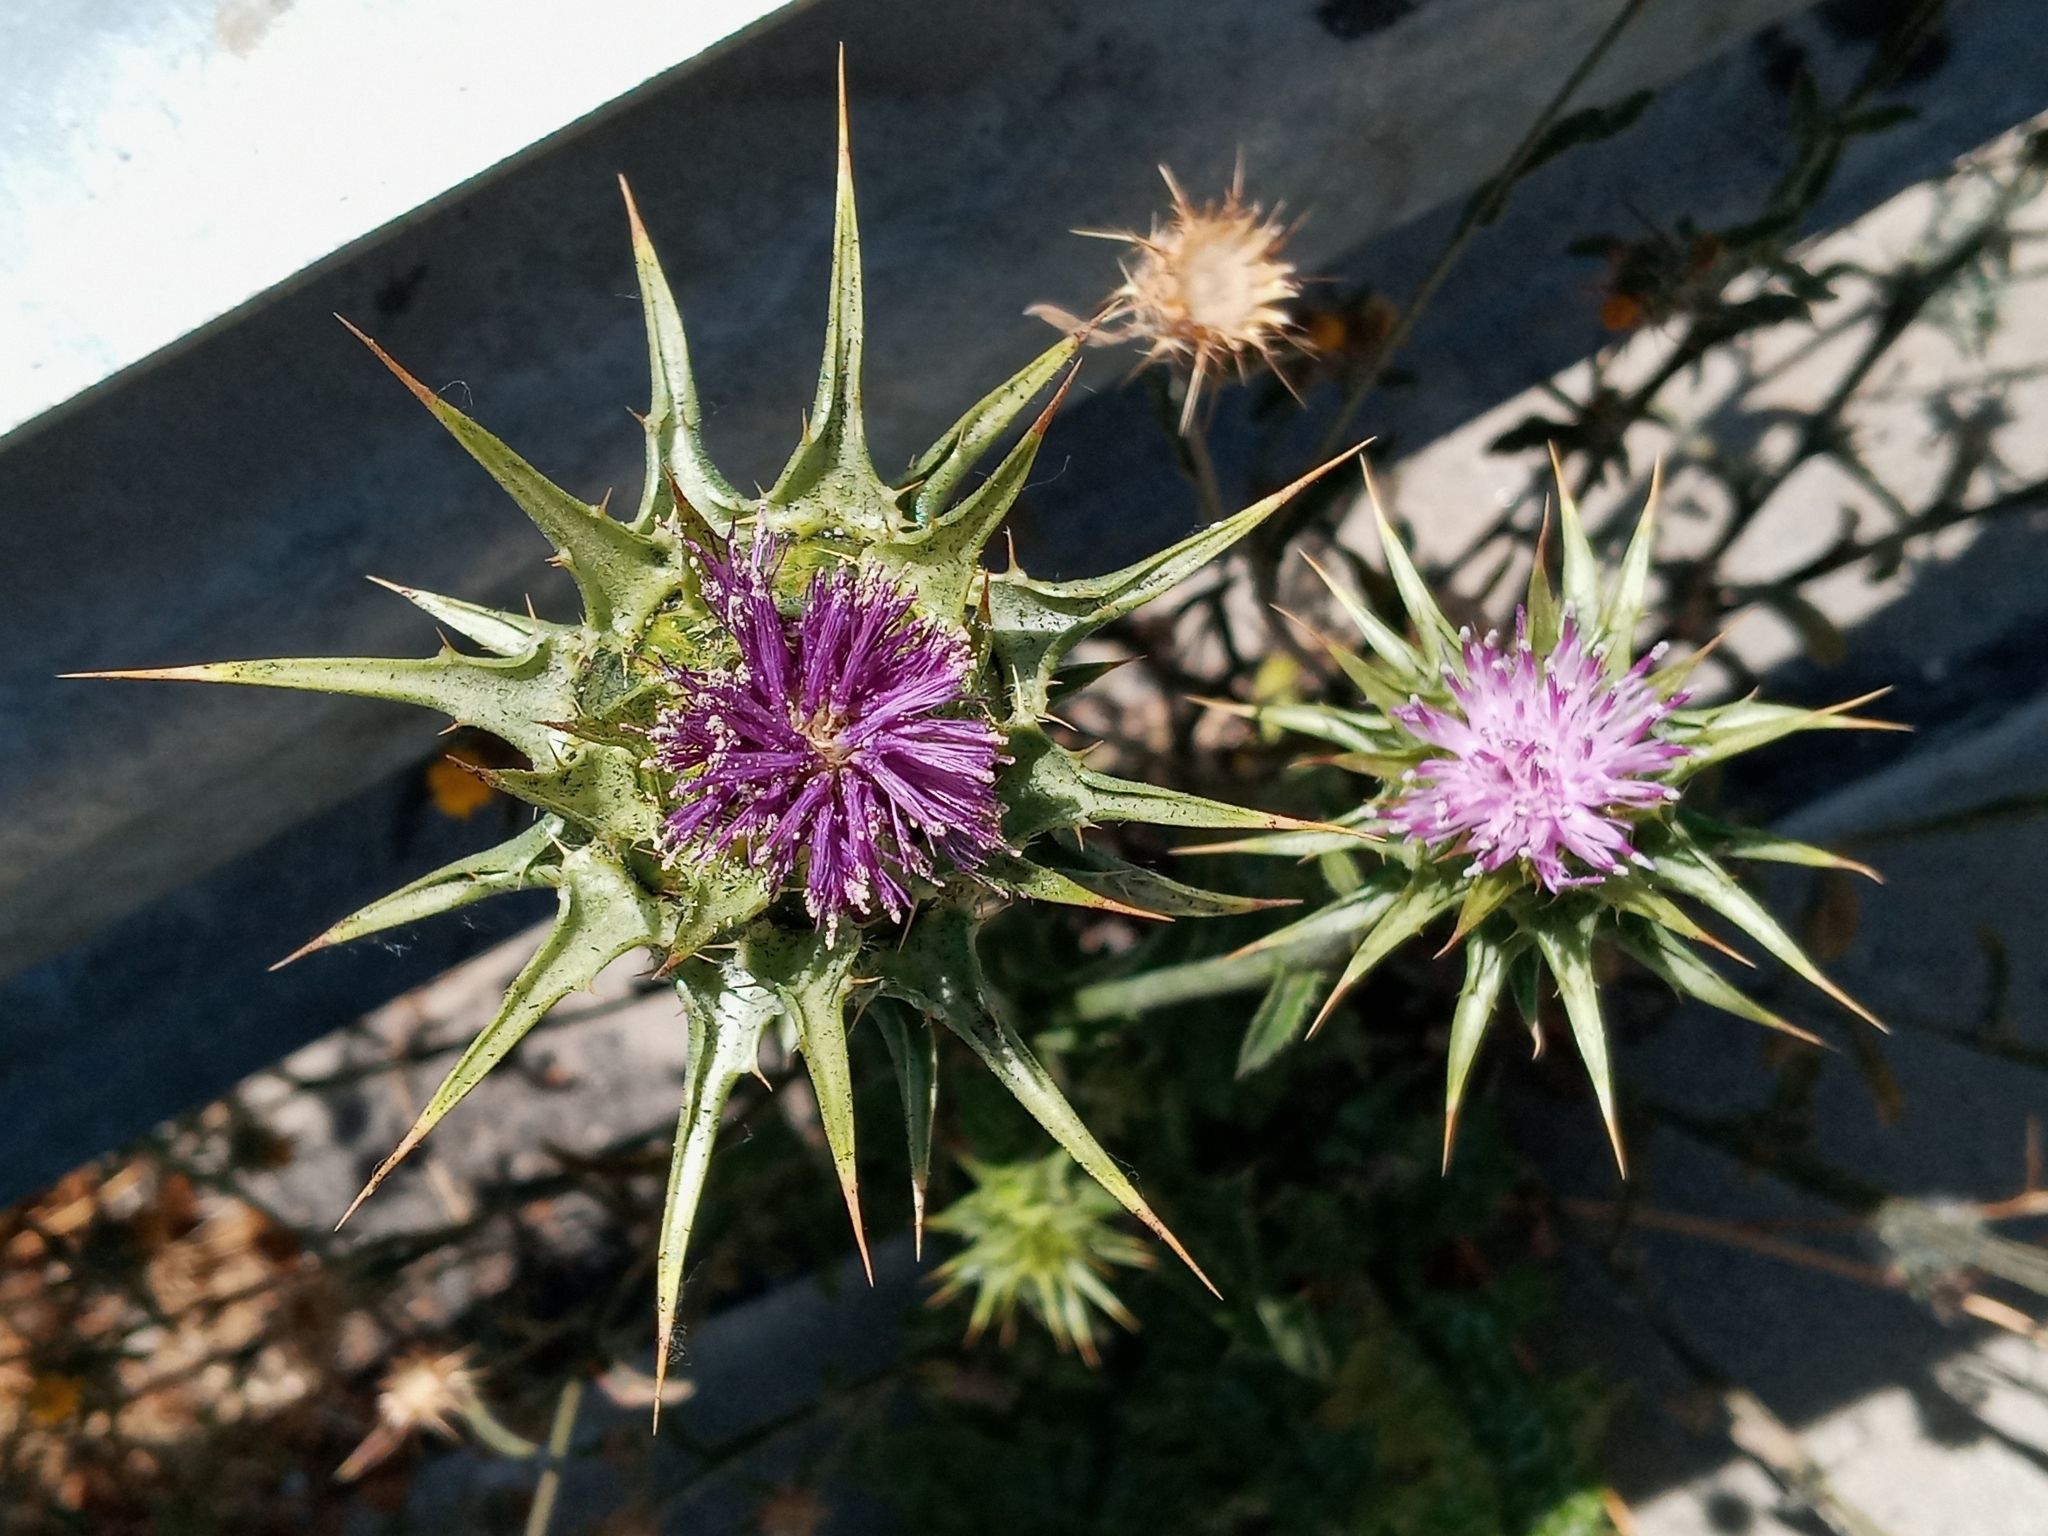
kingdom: Plantae
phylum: Tracheophyta
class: Magnoliopsida
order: Asterales
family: Asteraceae
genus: Silybum
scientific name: Silybum marianum
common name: Milk thistle
